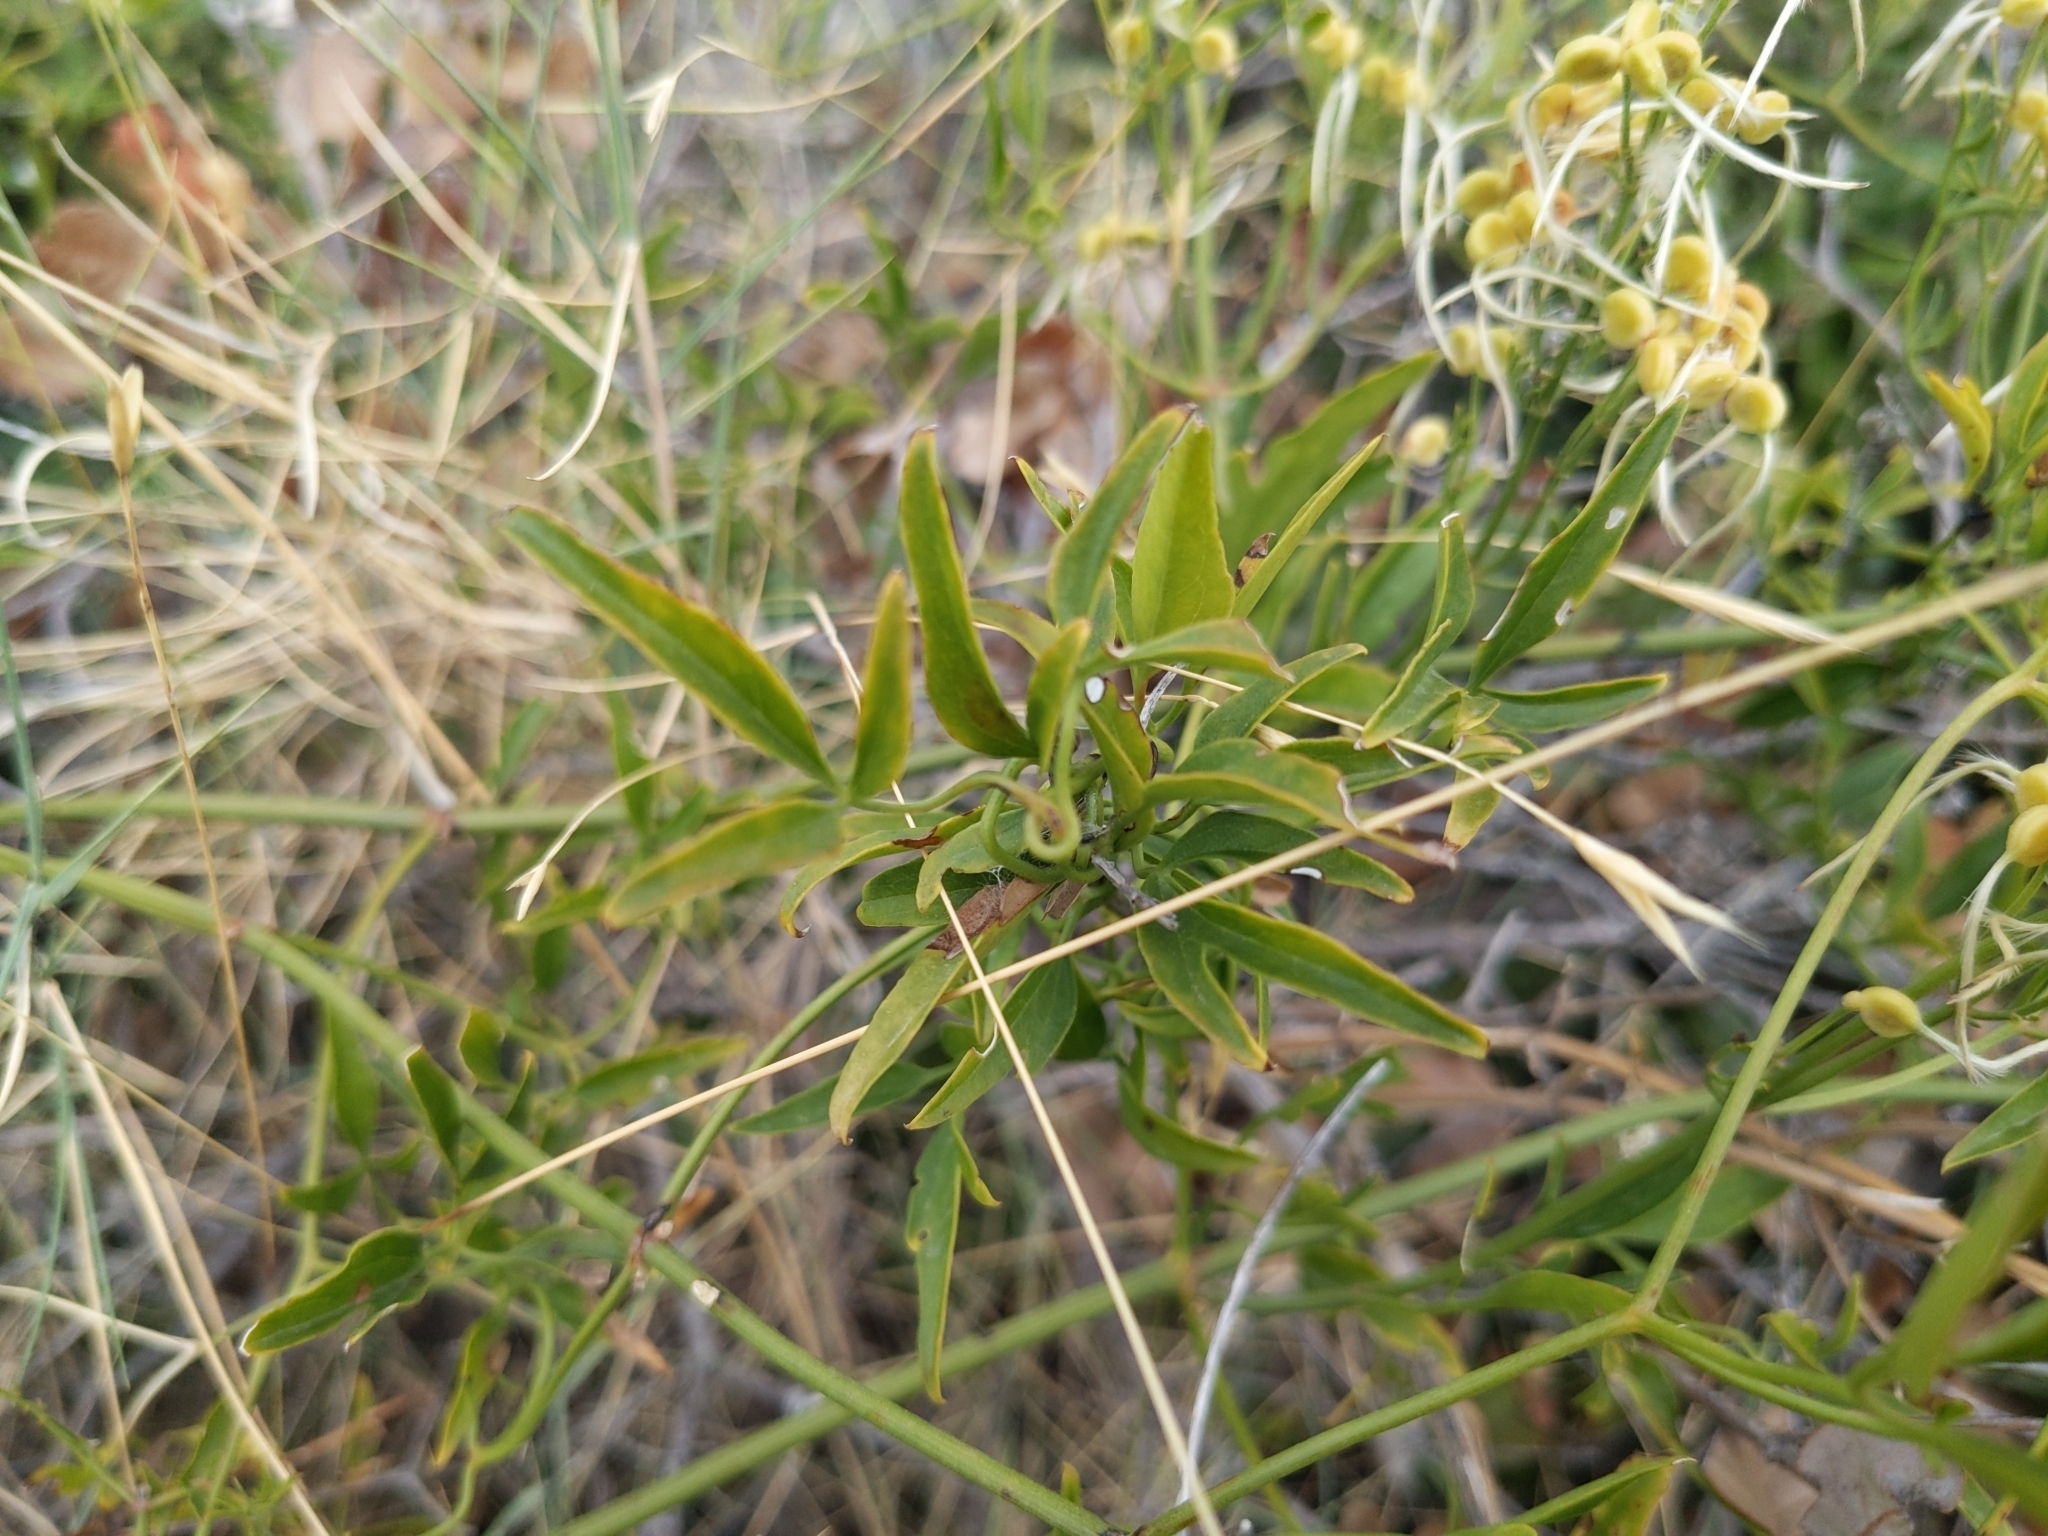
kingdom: Plantae
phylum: Tracheophyta
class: Magnoliopsida
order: Ranunculales
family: Ranunculaceae
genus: Clematis
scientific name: Clematis flammula
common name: Virgin's-bower
